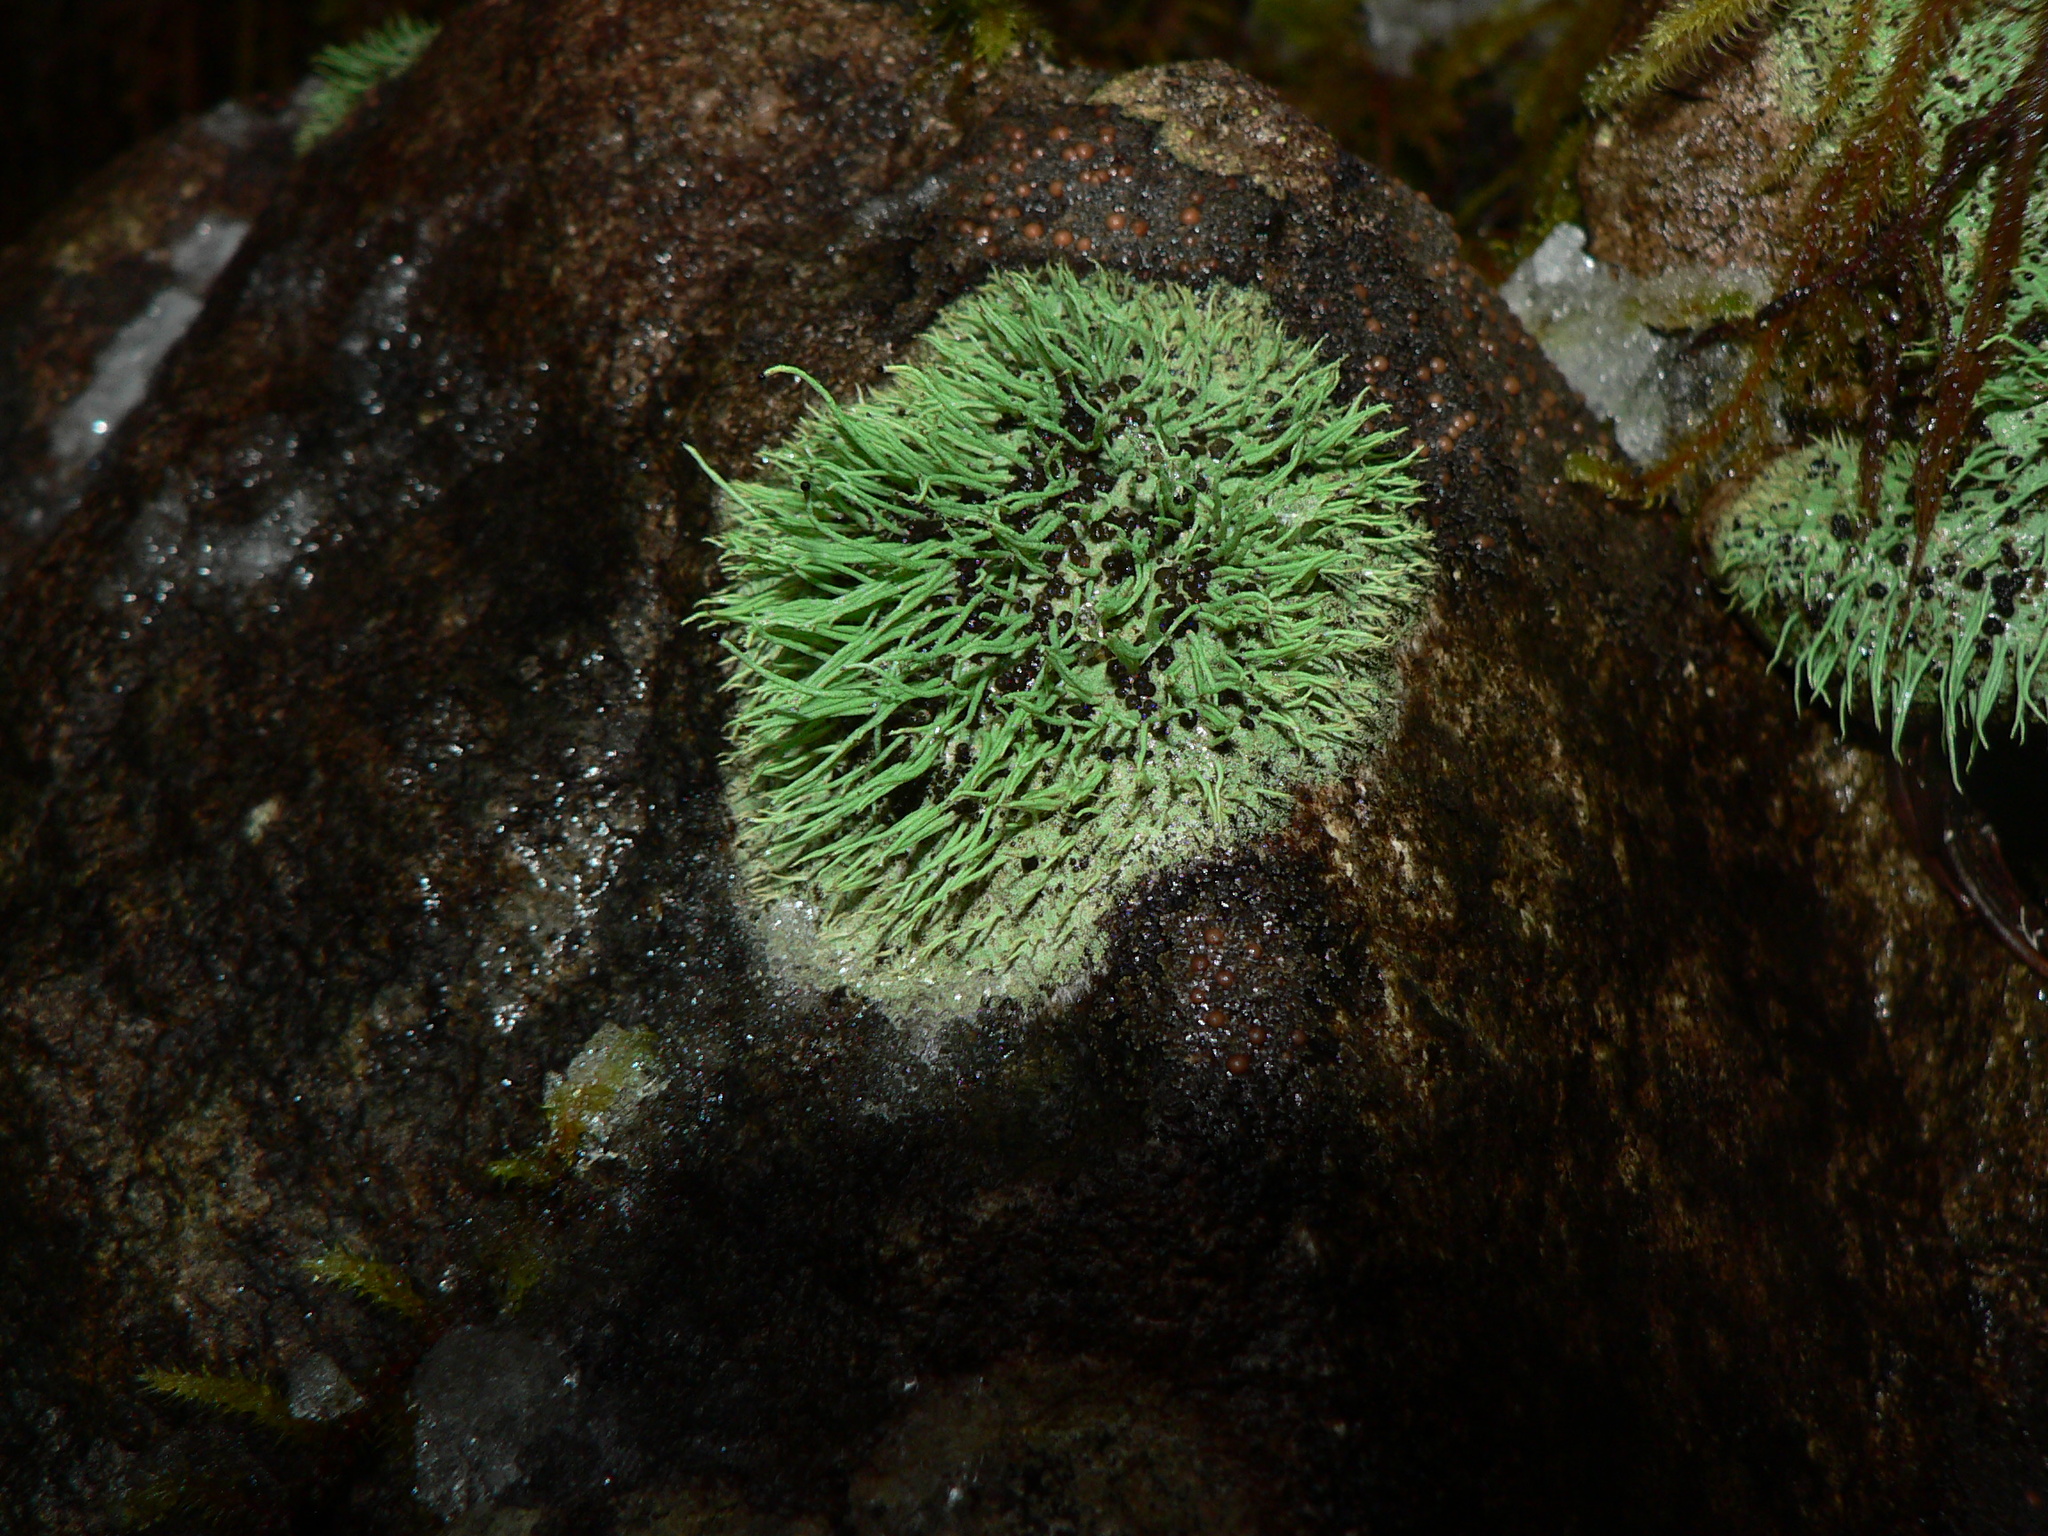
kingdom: Fungi
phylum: Ascomycota
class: Lecanoromycetes
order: Lecanorales
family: Cladoniaceae
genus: Pilophorus
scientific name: Pilophorus acicularis
